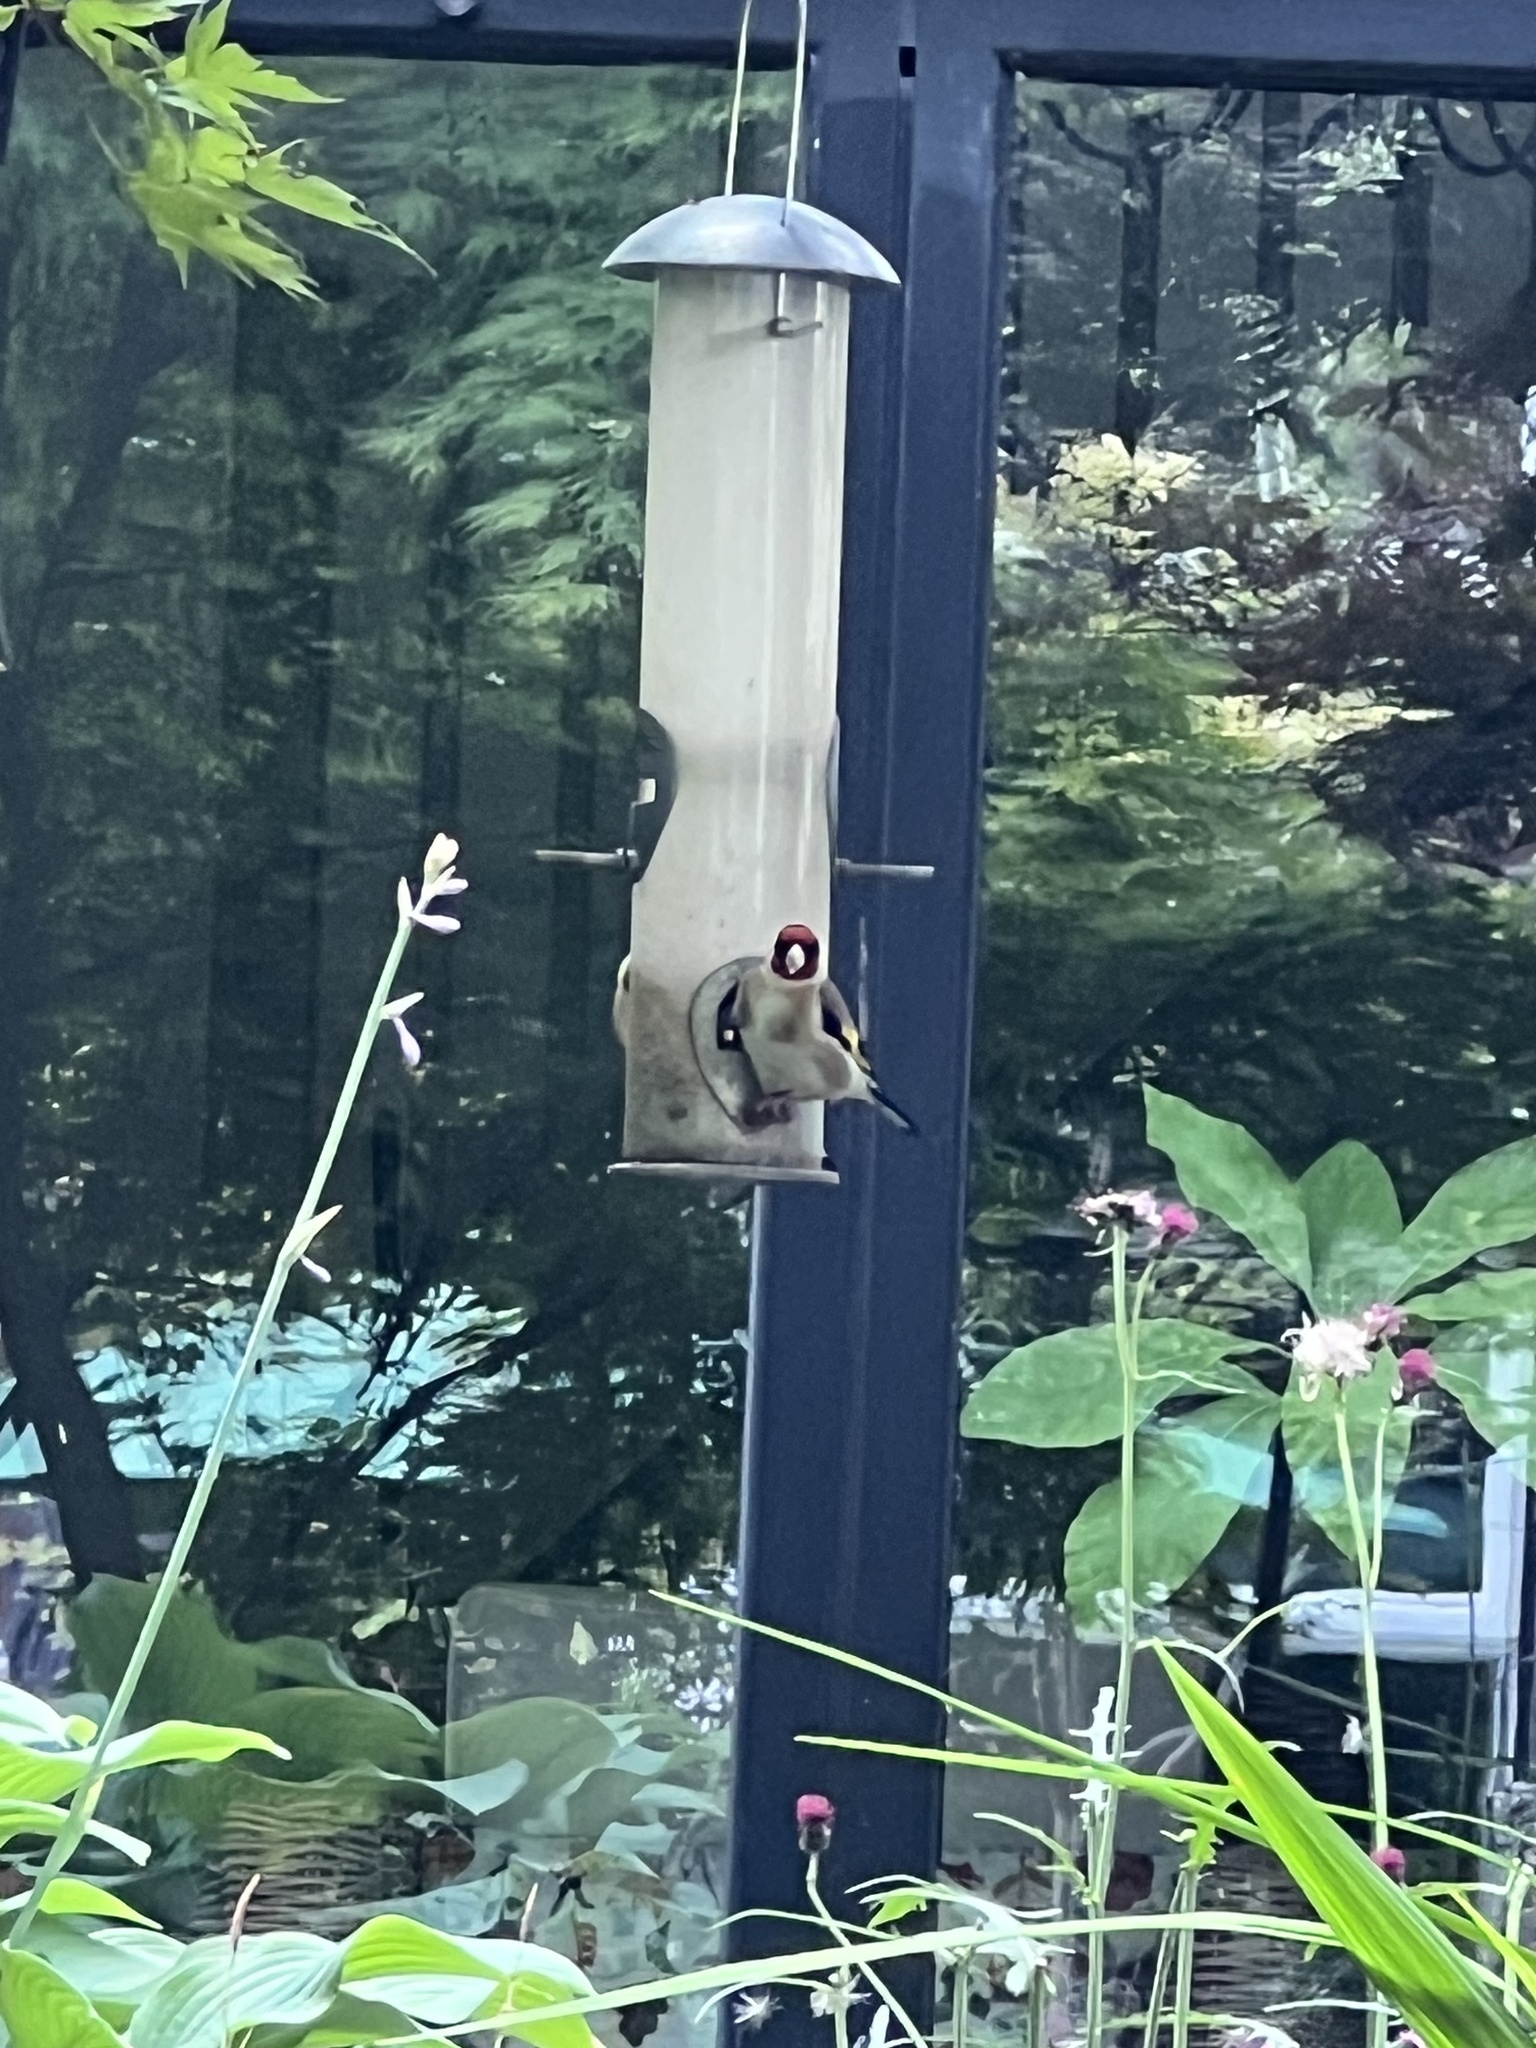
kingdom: Animalia
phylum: Chordata
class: Aves
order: Passeriformes
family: Fringillidae
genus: Carduelis
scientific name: Carduelis carduelis
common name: European goldfinch
